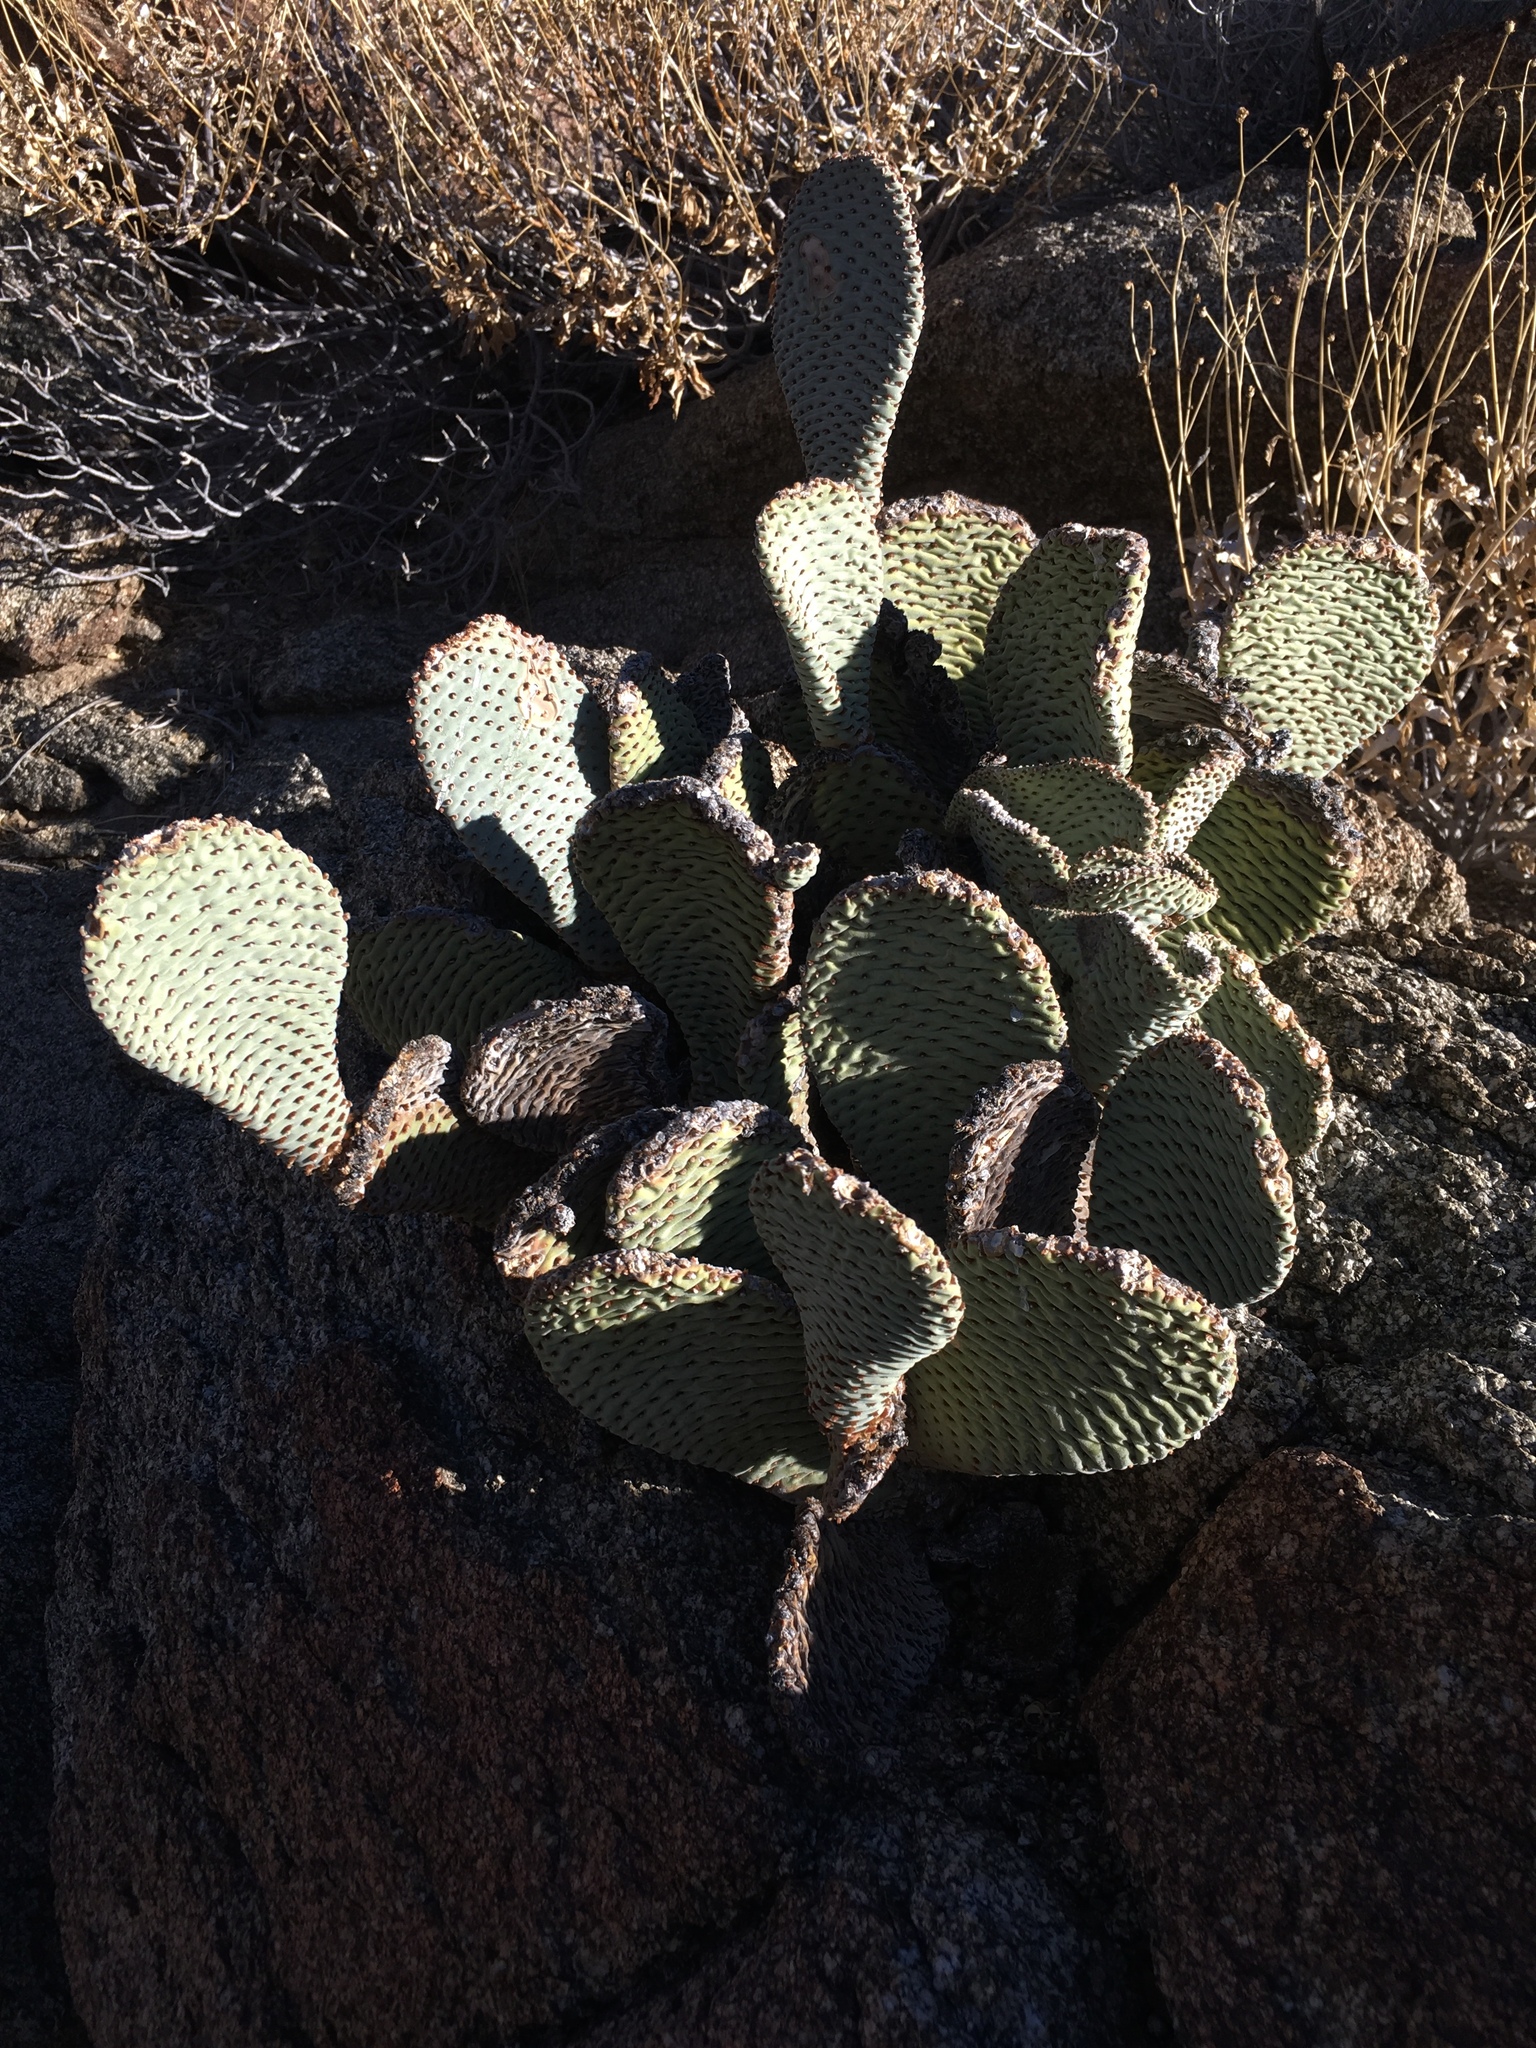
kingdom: Plantae
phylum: Tracheophyta
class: Magnoliopsida
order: Caryophyllales
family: Cactaceae
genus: Opuntia
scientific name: Opuntia basilaris
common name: Beavertail prickly-pear
